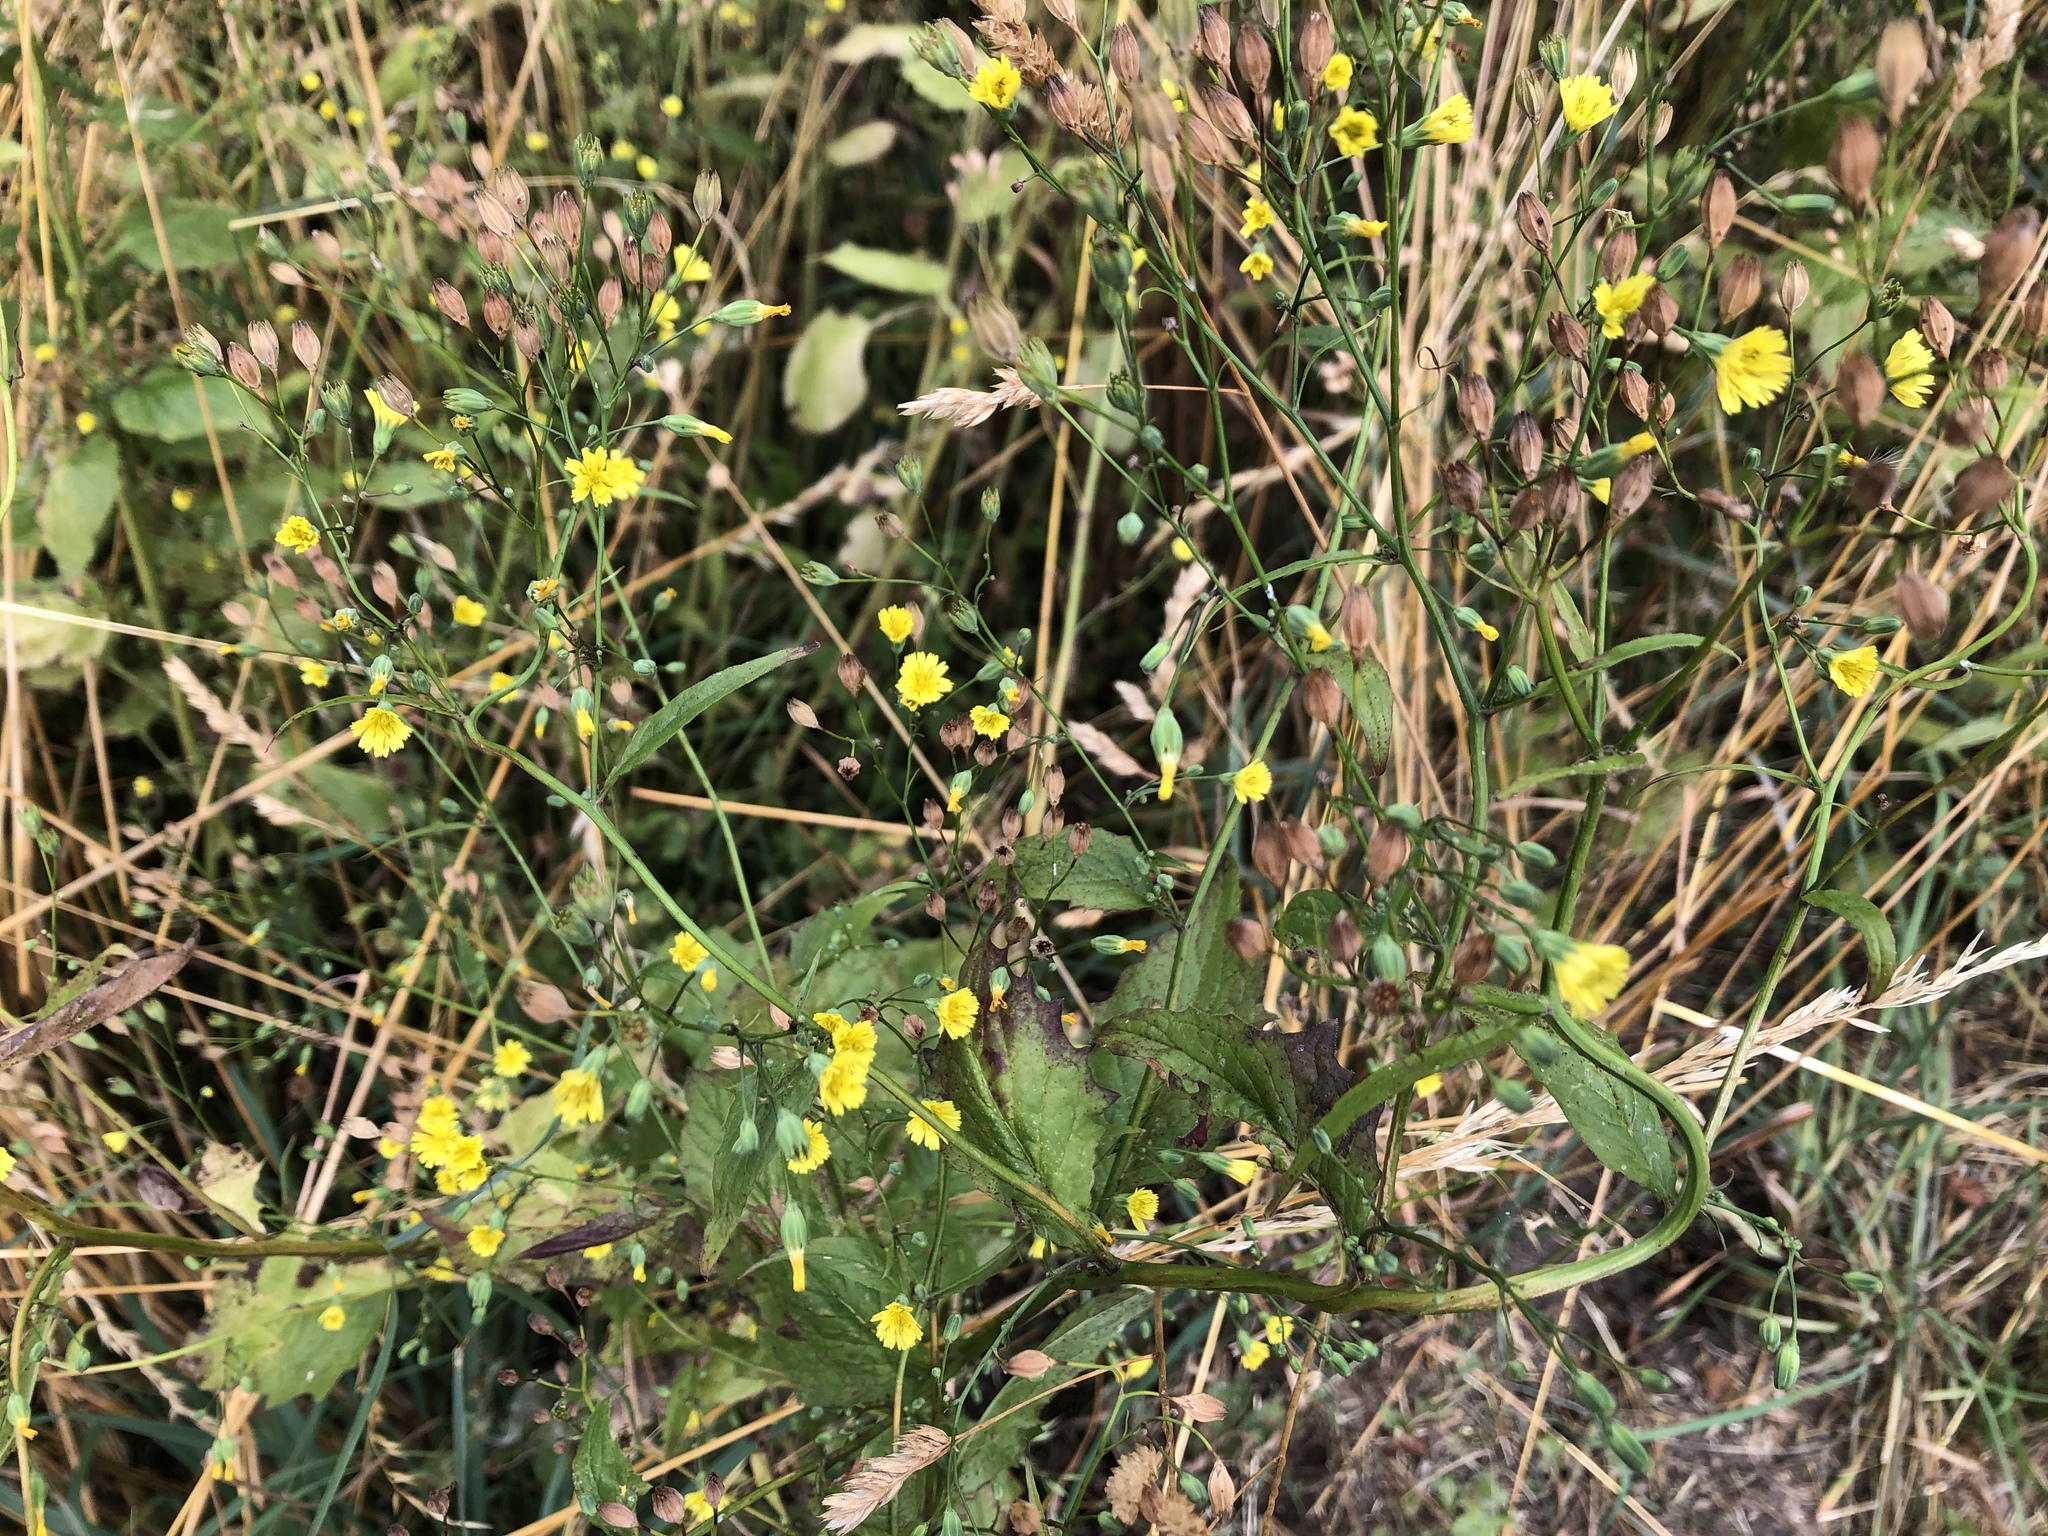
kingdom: Plantae
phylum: Tracheophyta
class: Magnoliopsida
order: Asterales
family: Asteraceae
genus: Lapsana
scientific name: Lapsana communis
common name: Nipplewort
